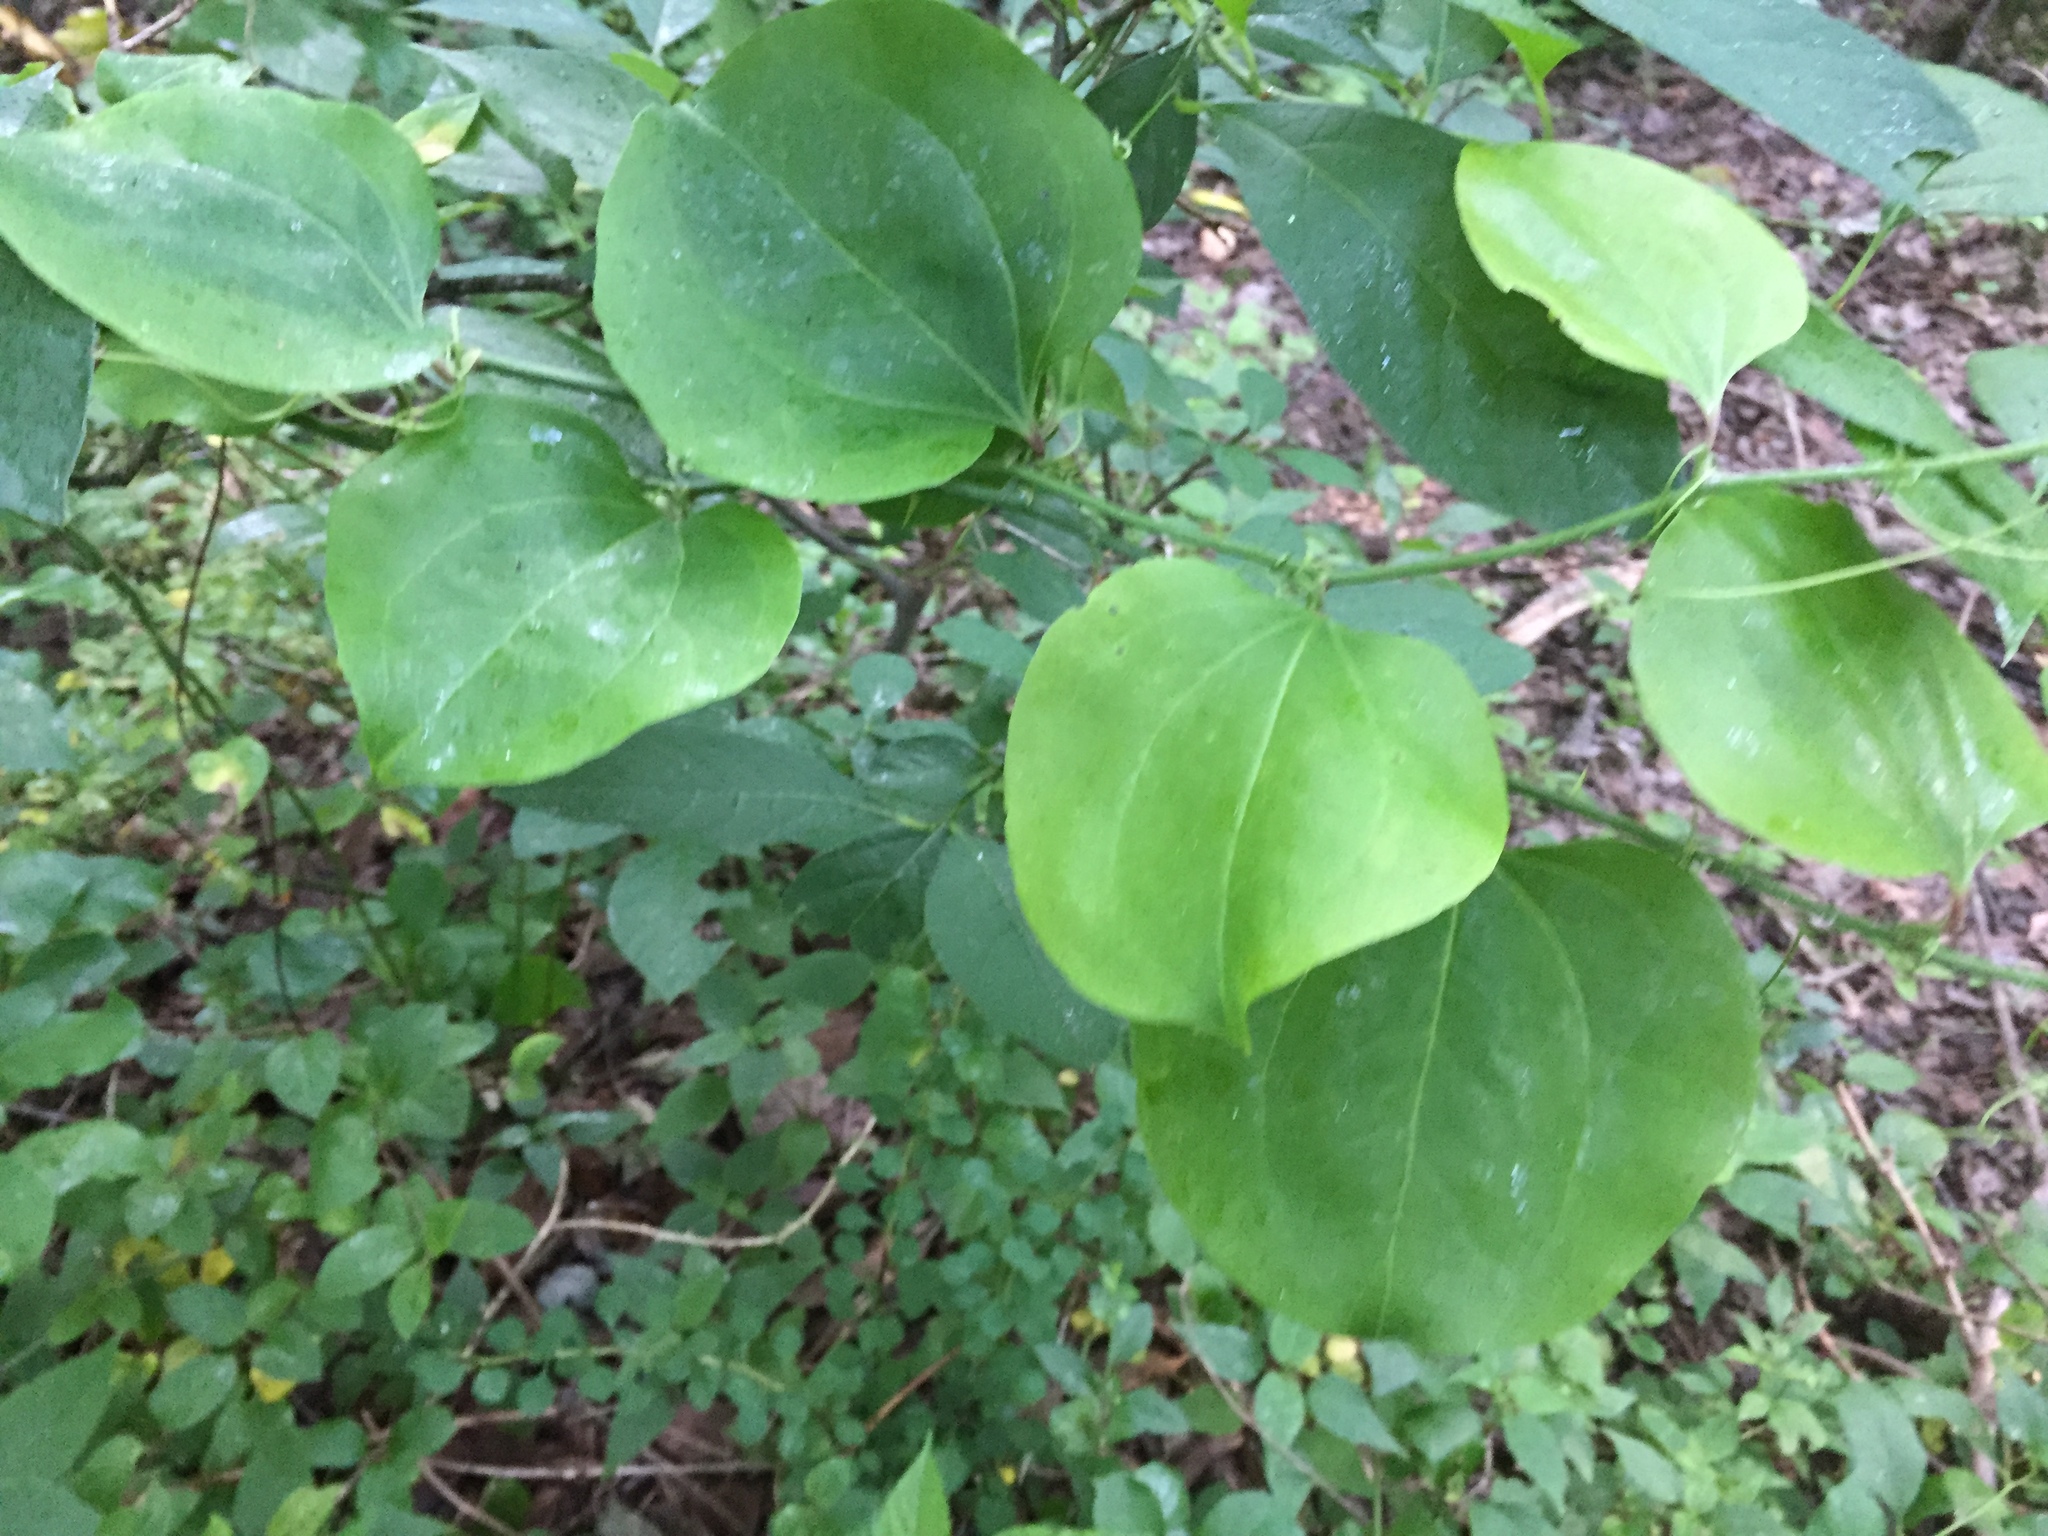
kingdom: Plantae
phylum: Tracheophyta
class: Liliopsida
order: Liliales
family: Smilacaceae
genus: Smilax
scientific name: Smilax rotundifolia
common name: Bullbriar
